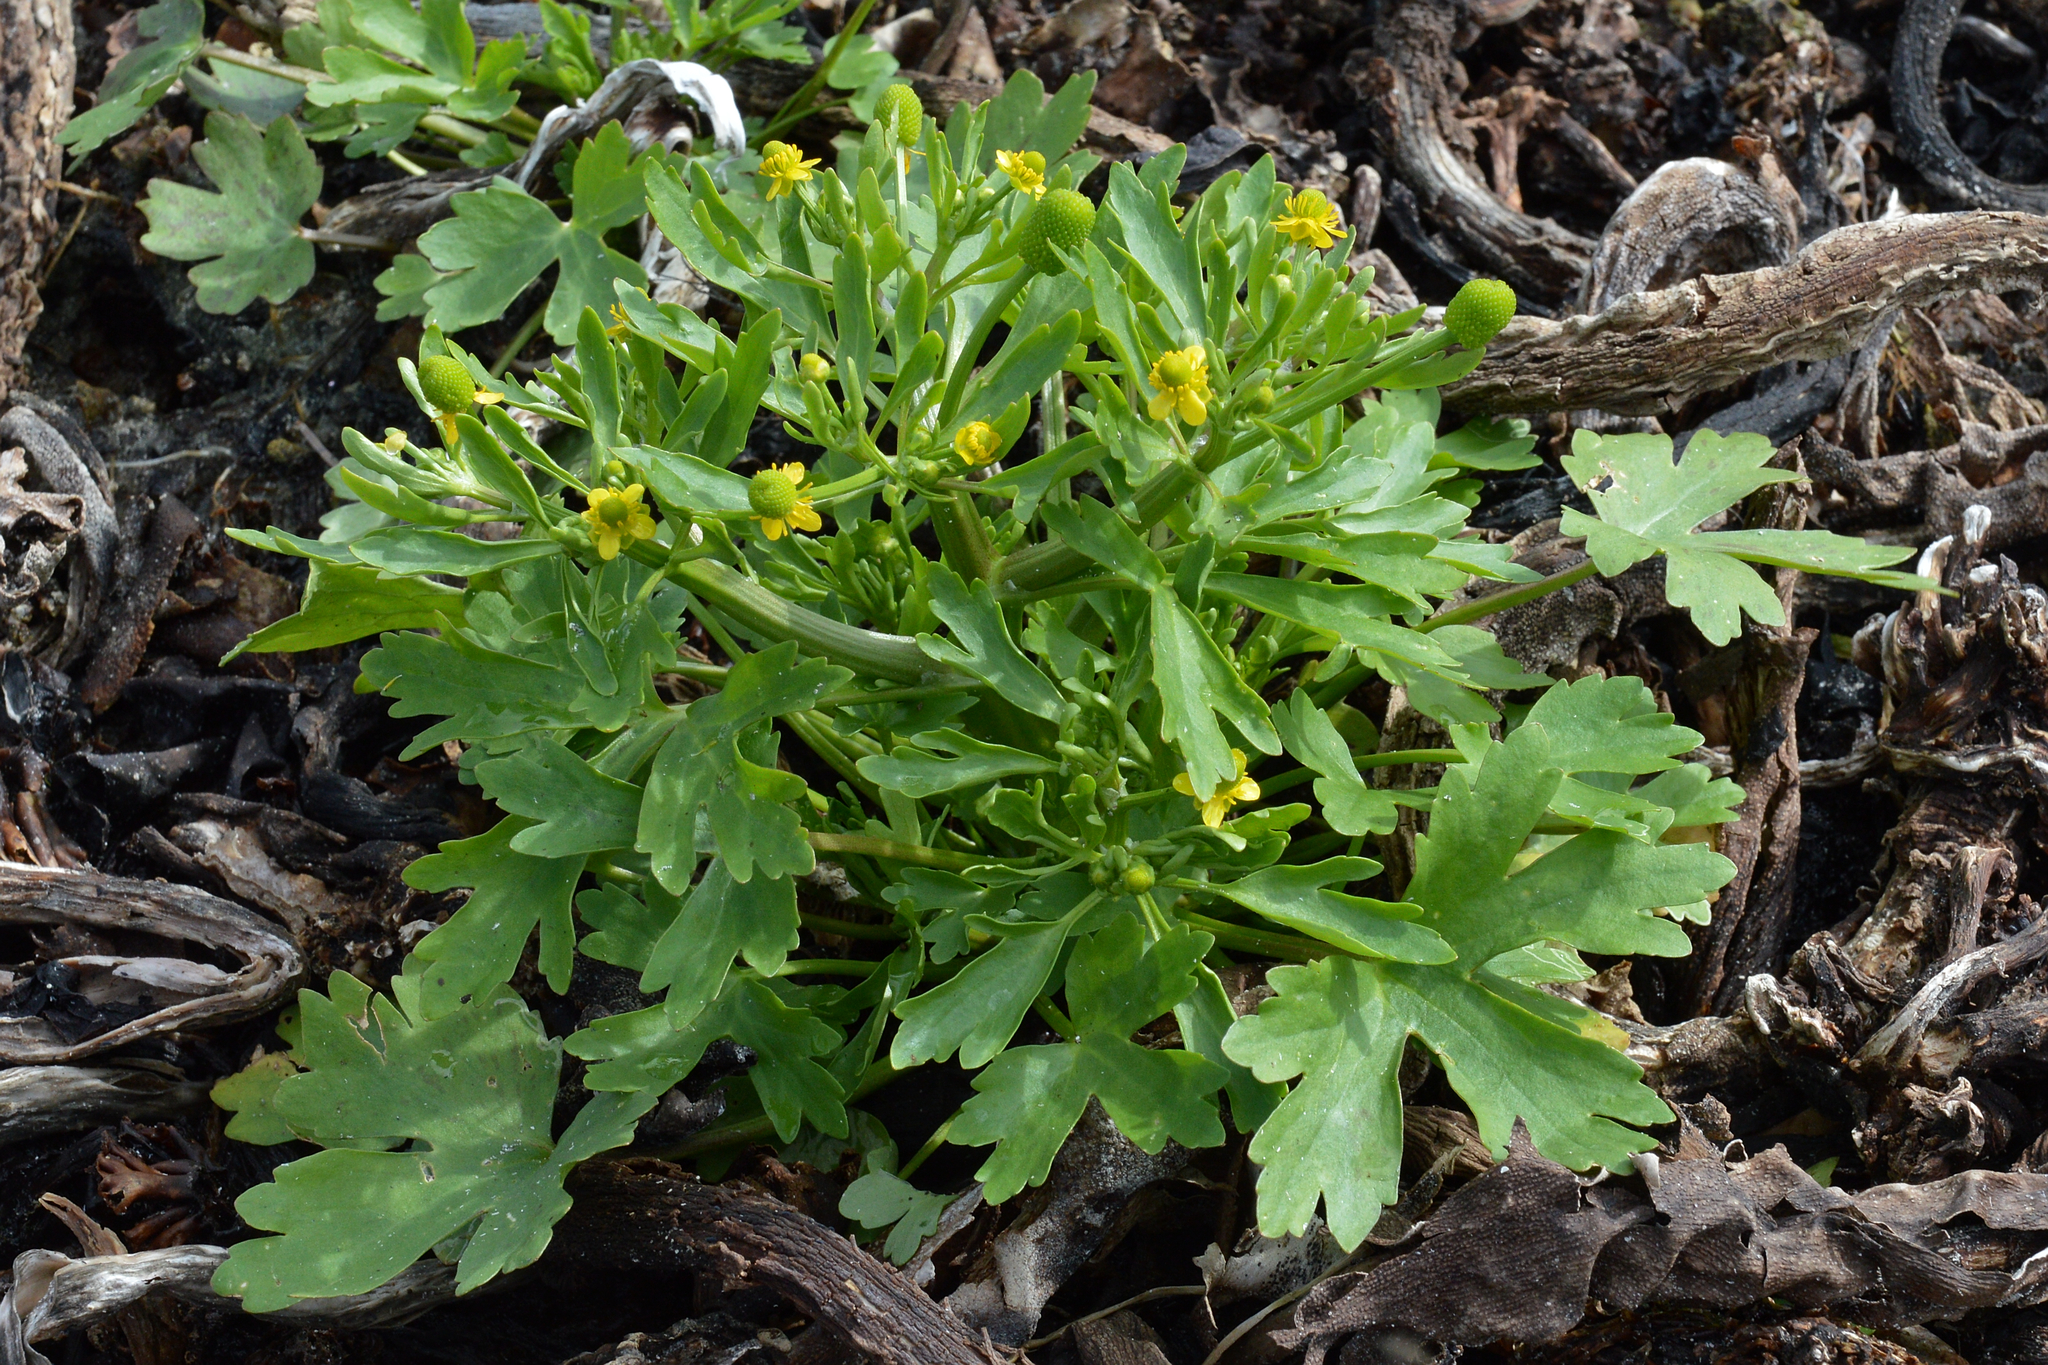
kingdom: Plantae
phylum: Tracheophyta
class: Magnoliopsida
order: Ranunculales
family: Ranunculaceae
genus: Ranunculus
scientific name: Ranunculus sceleratus
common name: Celery-leaved buttercup
